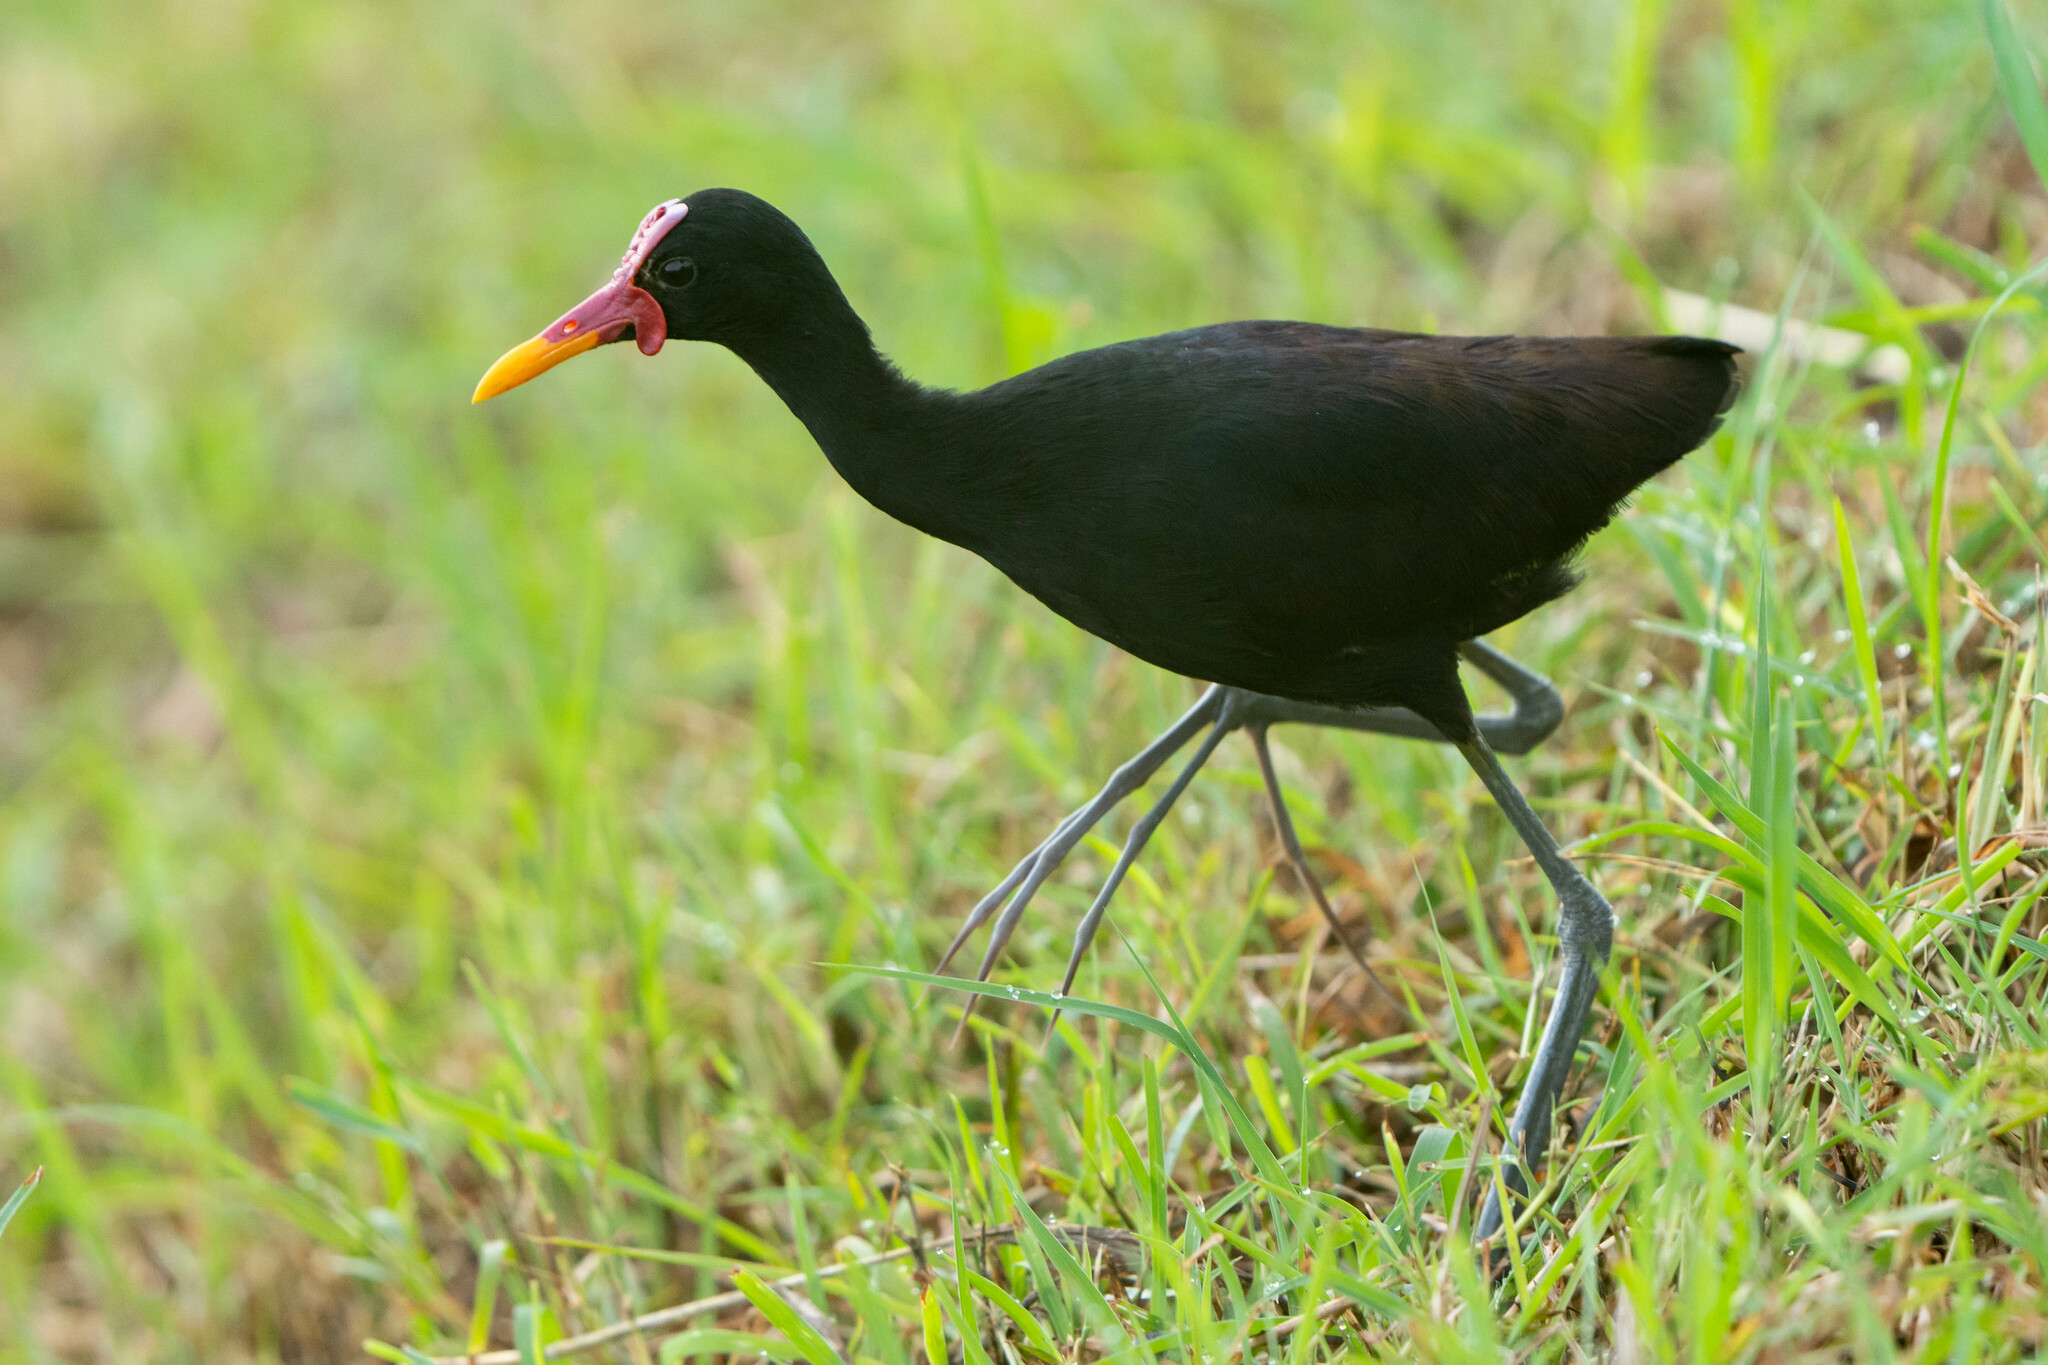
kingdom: Animalia
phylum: Chordata
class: Aves
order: Charadriiformes
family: Jacanidae
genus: Jacana
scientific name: Jacana jacana
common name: Wattled jacana
